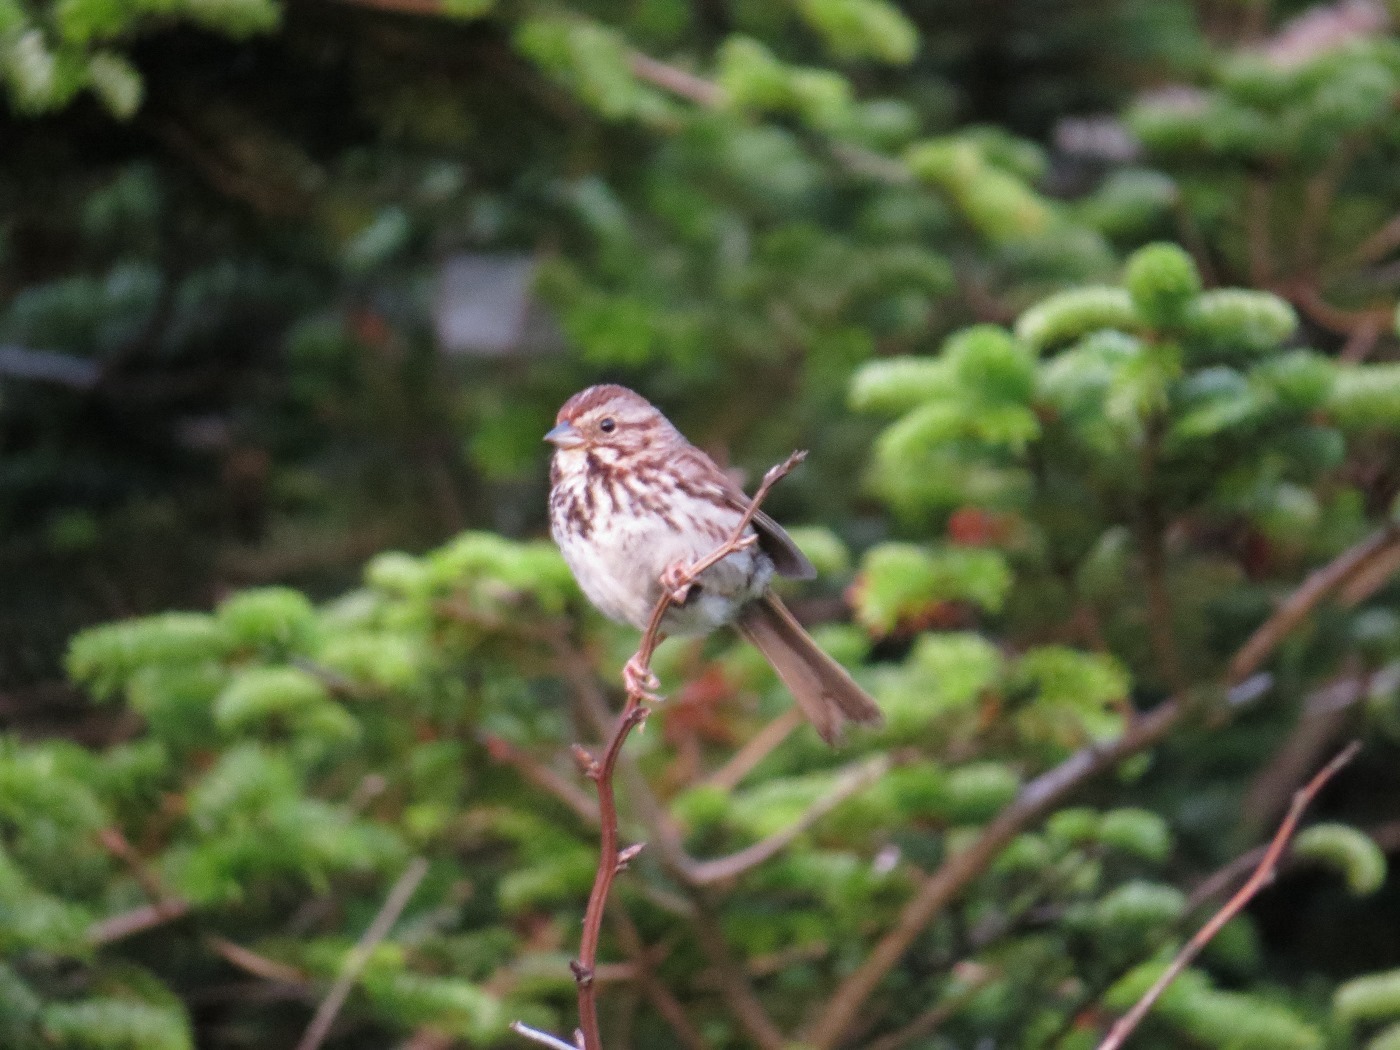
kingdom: Animalia
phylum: Chordata
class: Aves
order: Passeriformes
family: Passerellidae
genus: Melospiza
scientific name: Melospiza melodia
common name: Song sparrow
